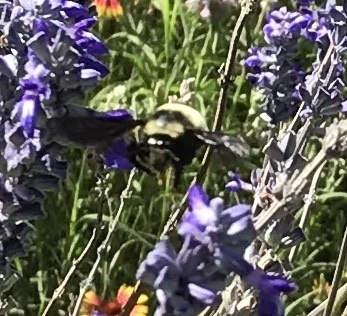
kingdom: Animalia
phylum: Arthropoda
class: Insecta
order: Hymenoptera
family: Apidae
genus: Bombus
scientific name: Bombus pensylvanicus
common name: Bumble bee
